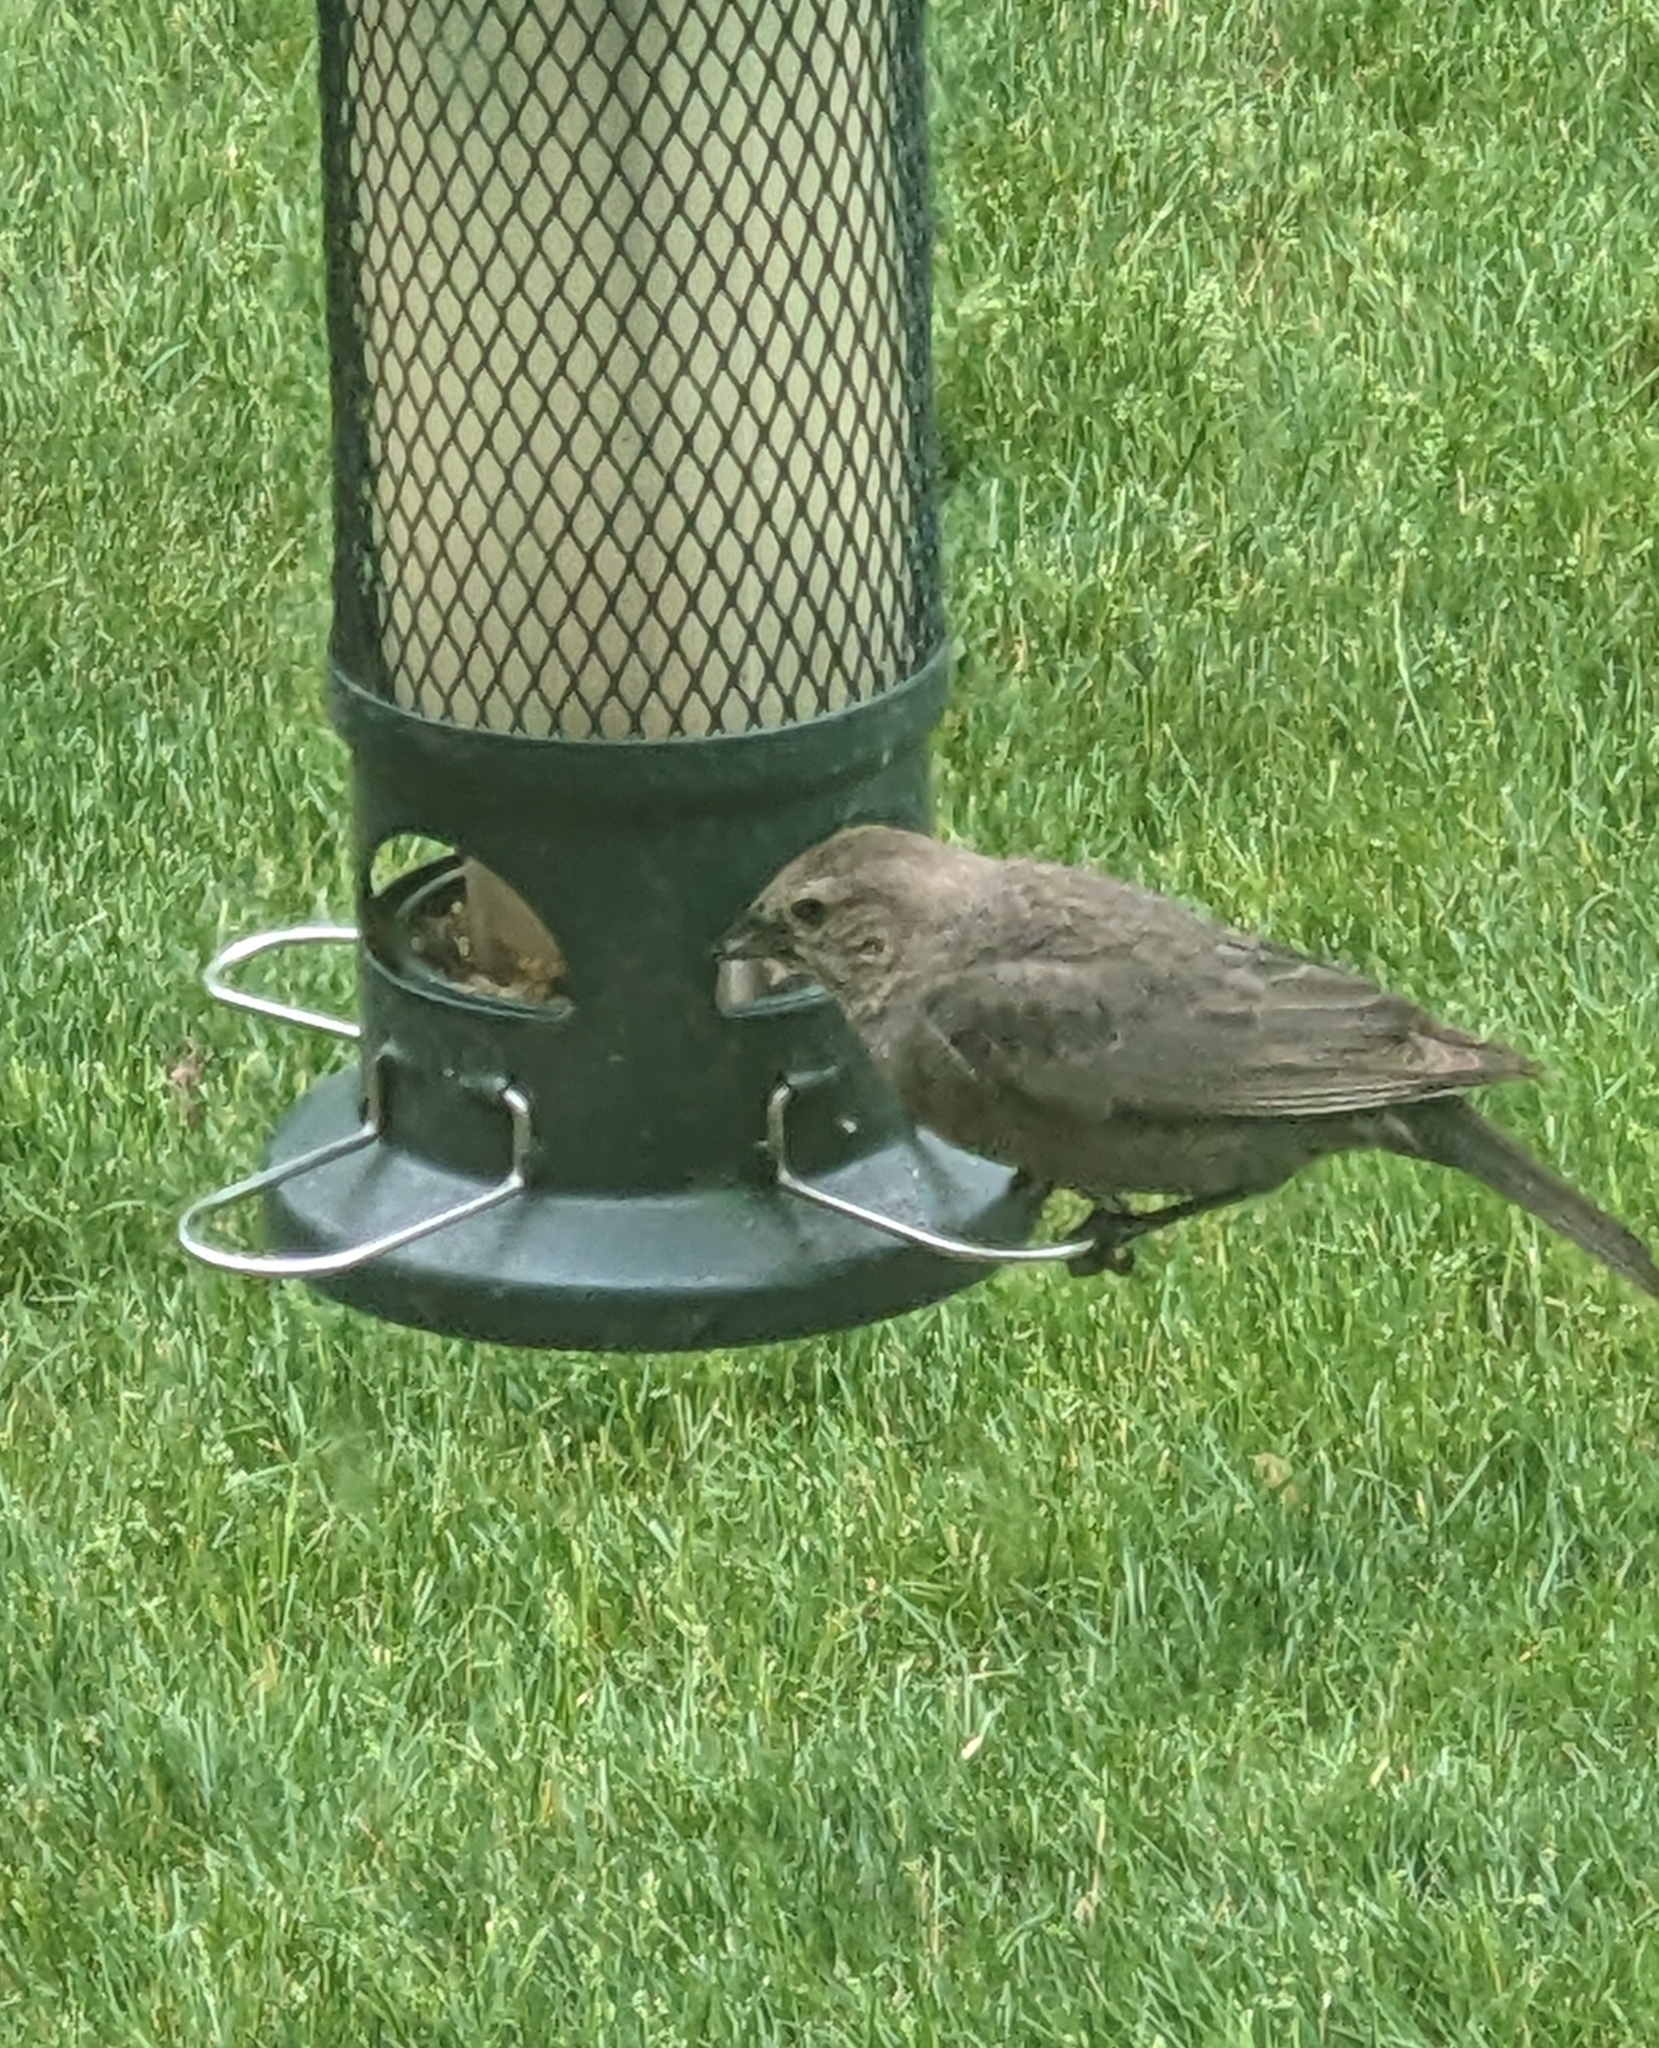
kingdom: Animalia
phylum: Chordata
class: Aves
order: Passeriformes
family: Icteridae
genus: Molothrus
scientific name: Molothrus ater
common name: Brown-headed cowbird
